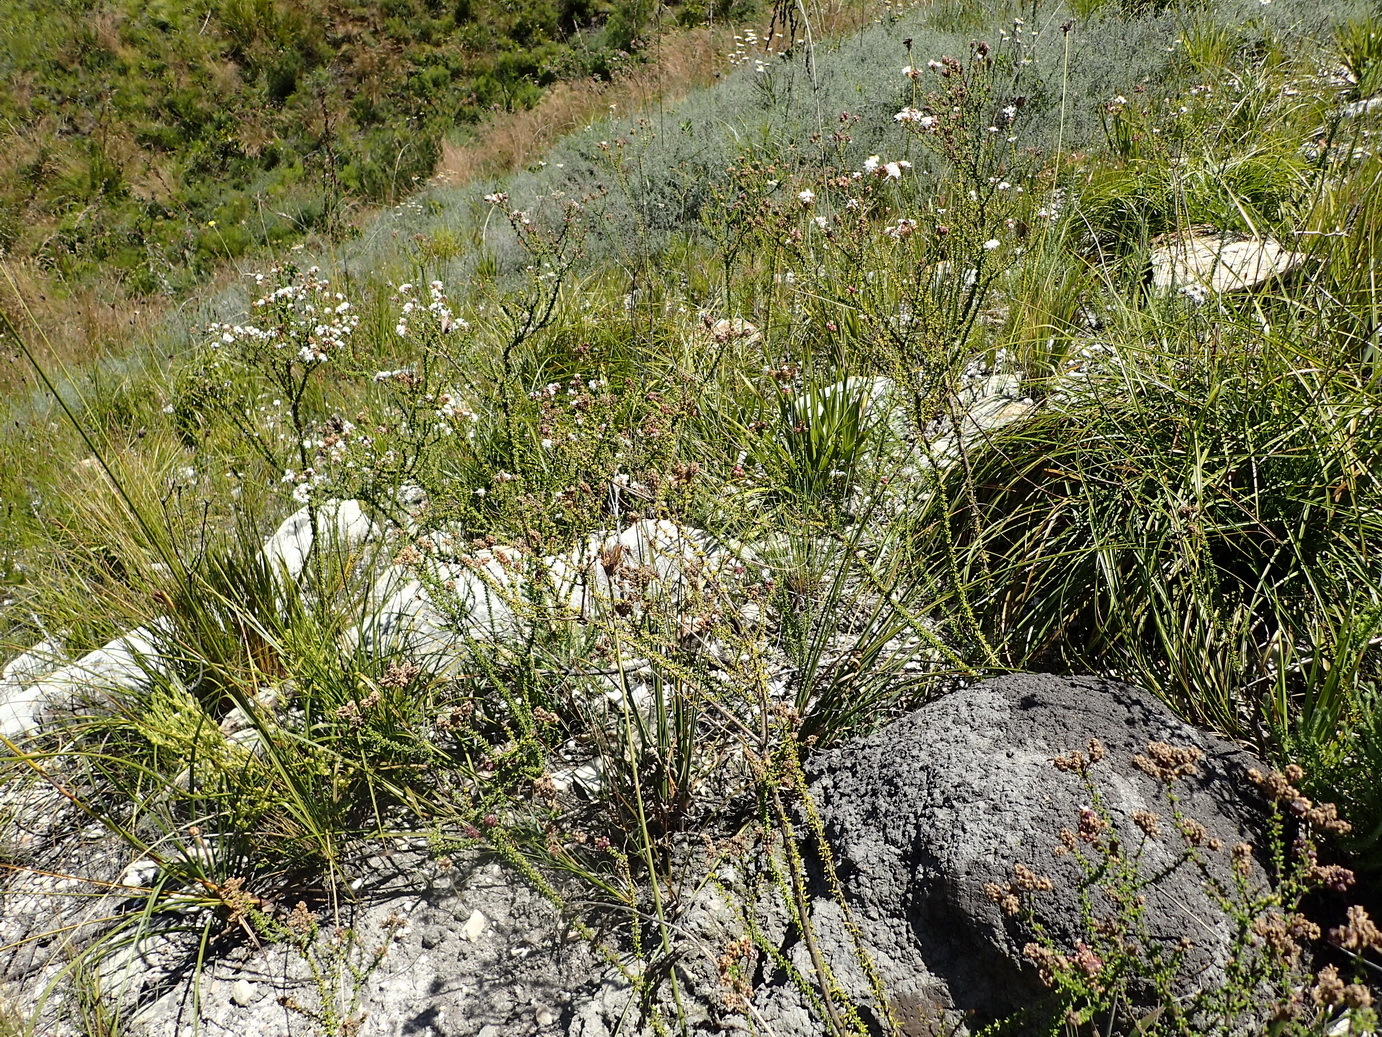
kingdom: Plantae
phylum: Tracheophyta
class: Magnoliopsida
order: Lamiales
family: Scrophulariaceae
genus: Selago
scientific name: Selago brevifolia
